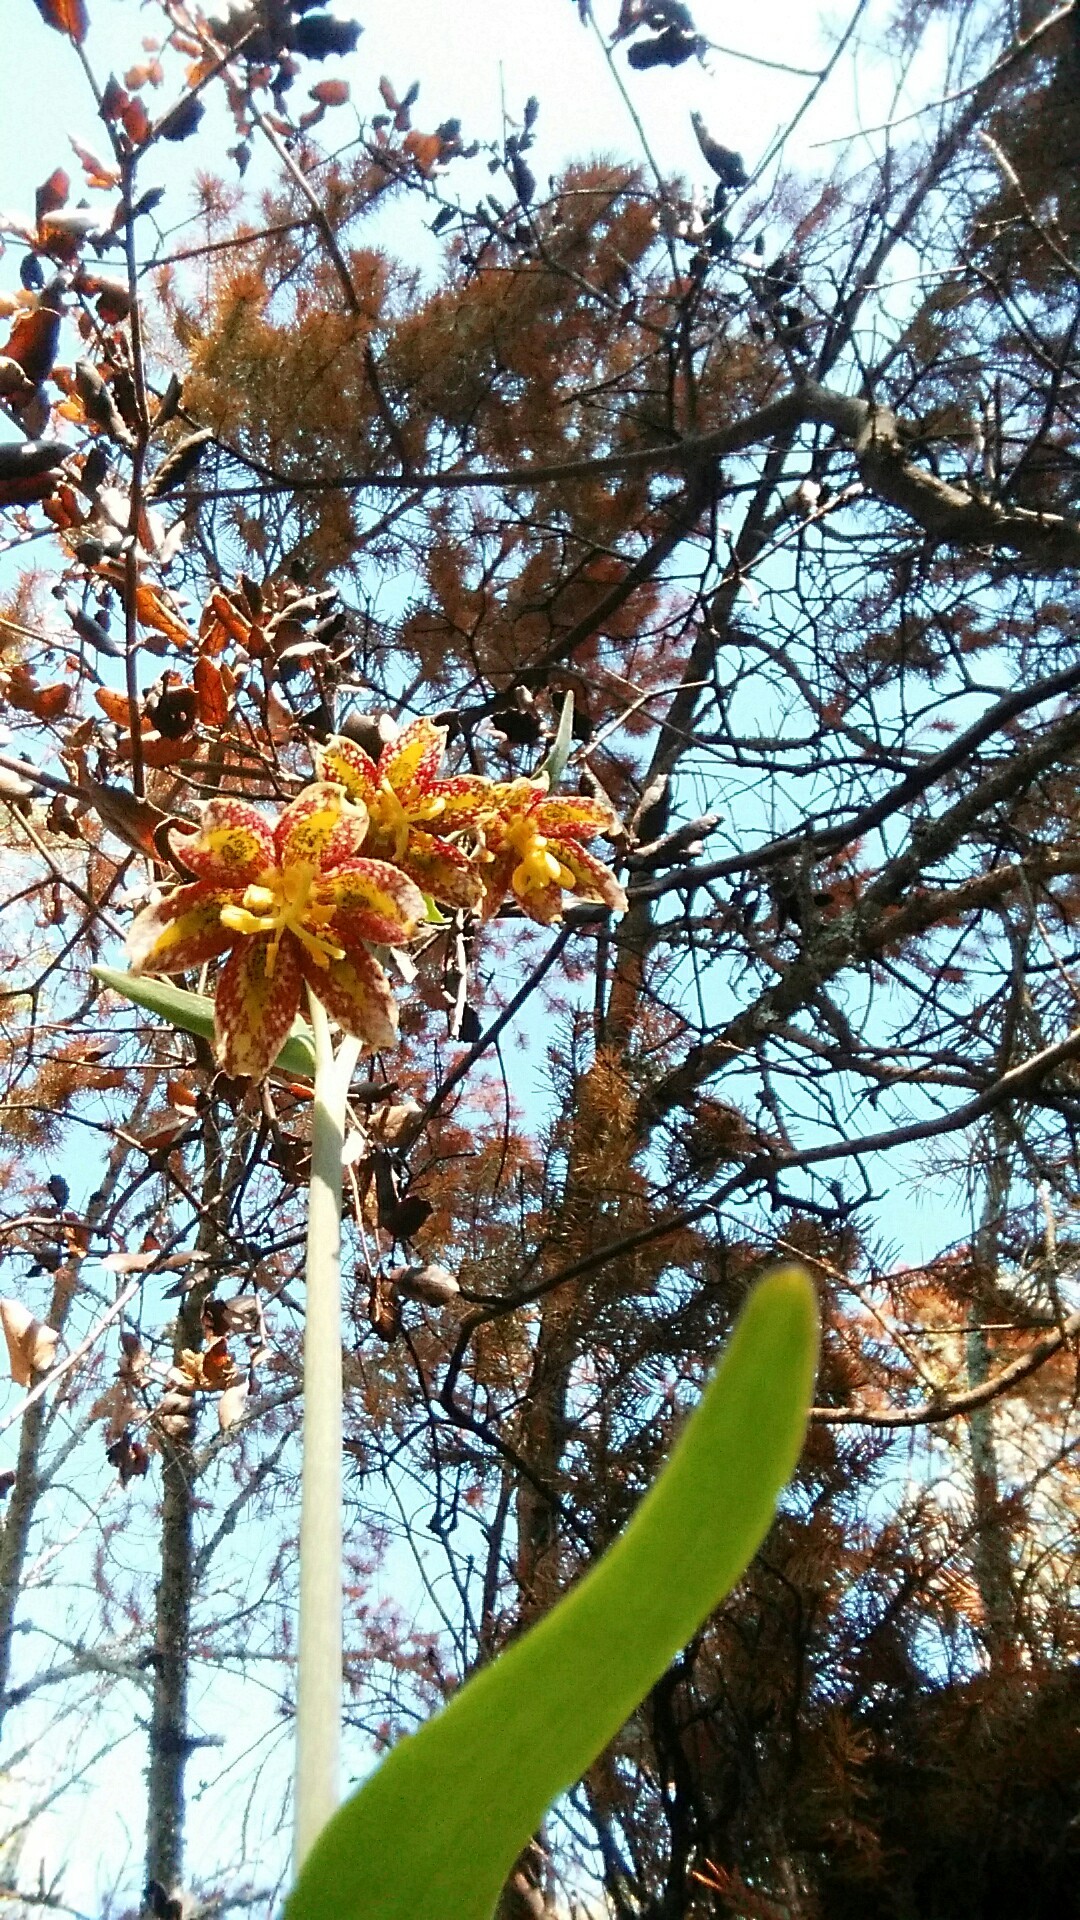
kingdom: Plantae
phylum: Tracheophyta
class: Liliopsida
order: Liliales
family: Liliaceae
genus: Fritillaria
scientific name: Fritillaria affinis
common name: Ojai fritillary
